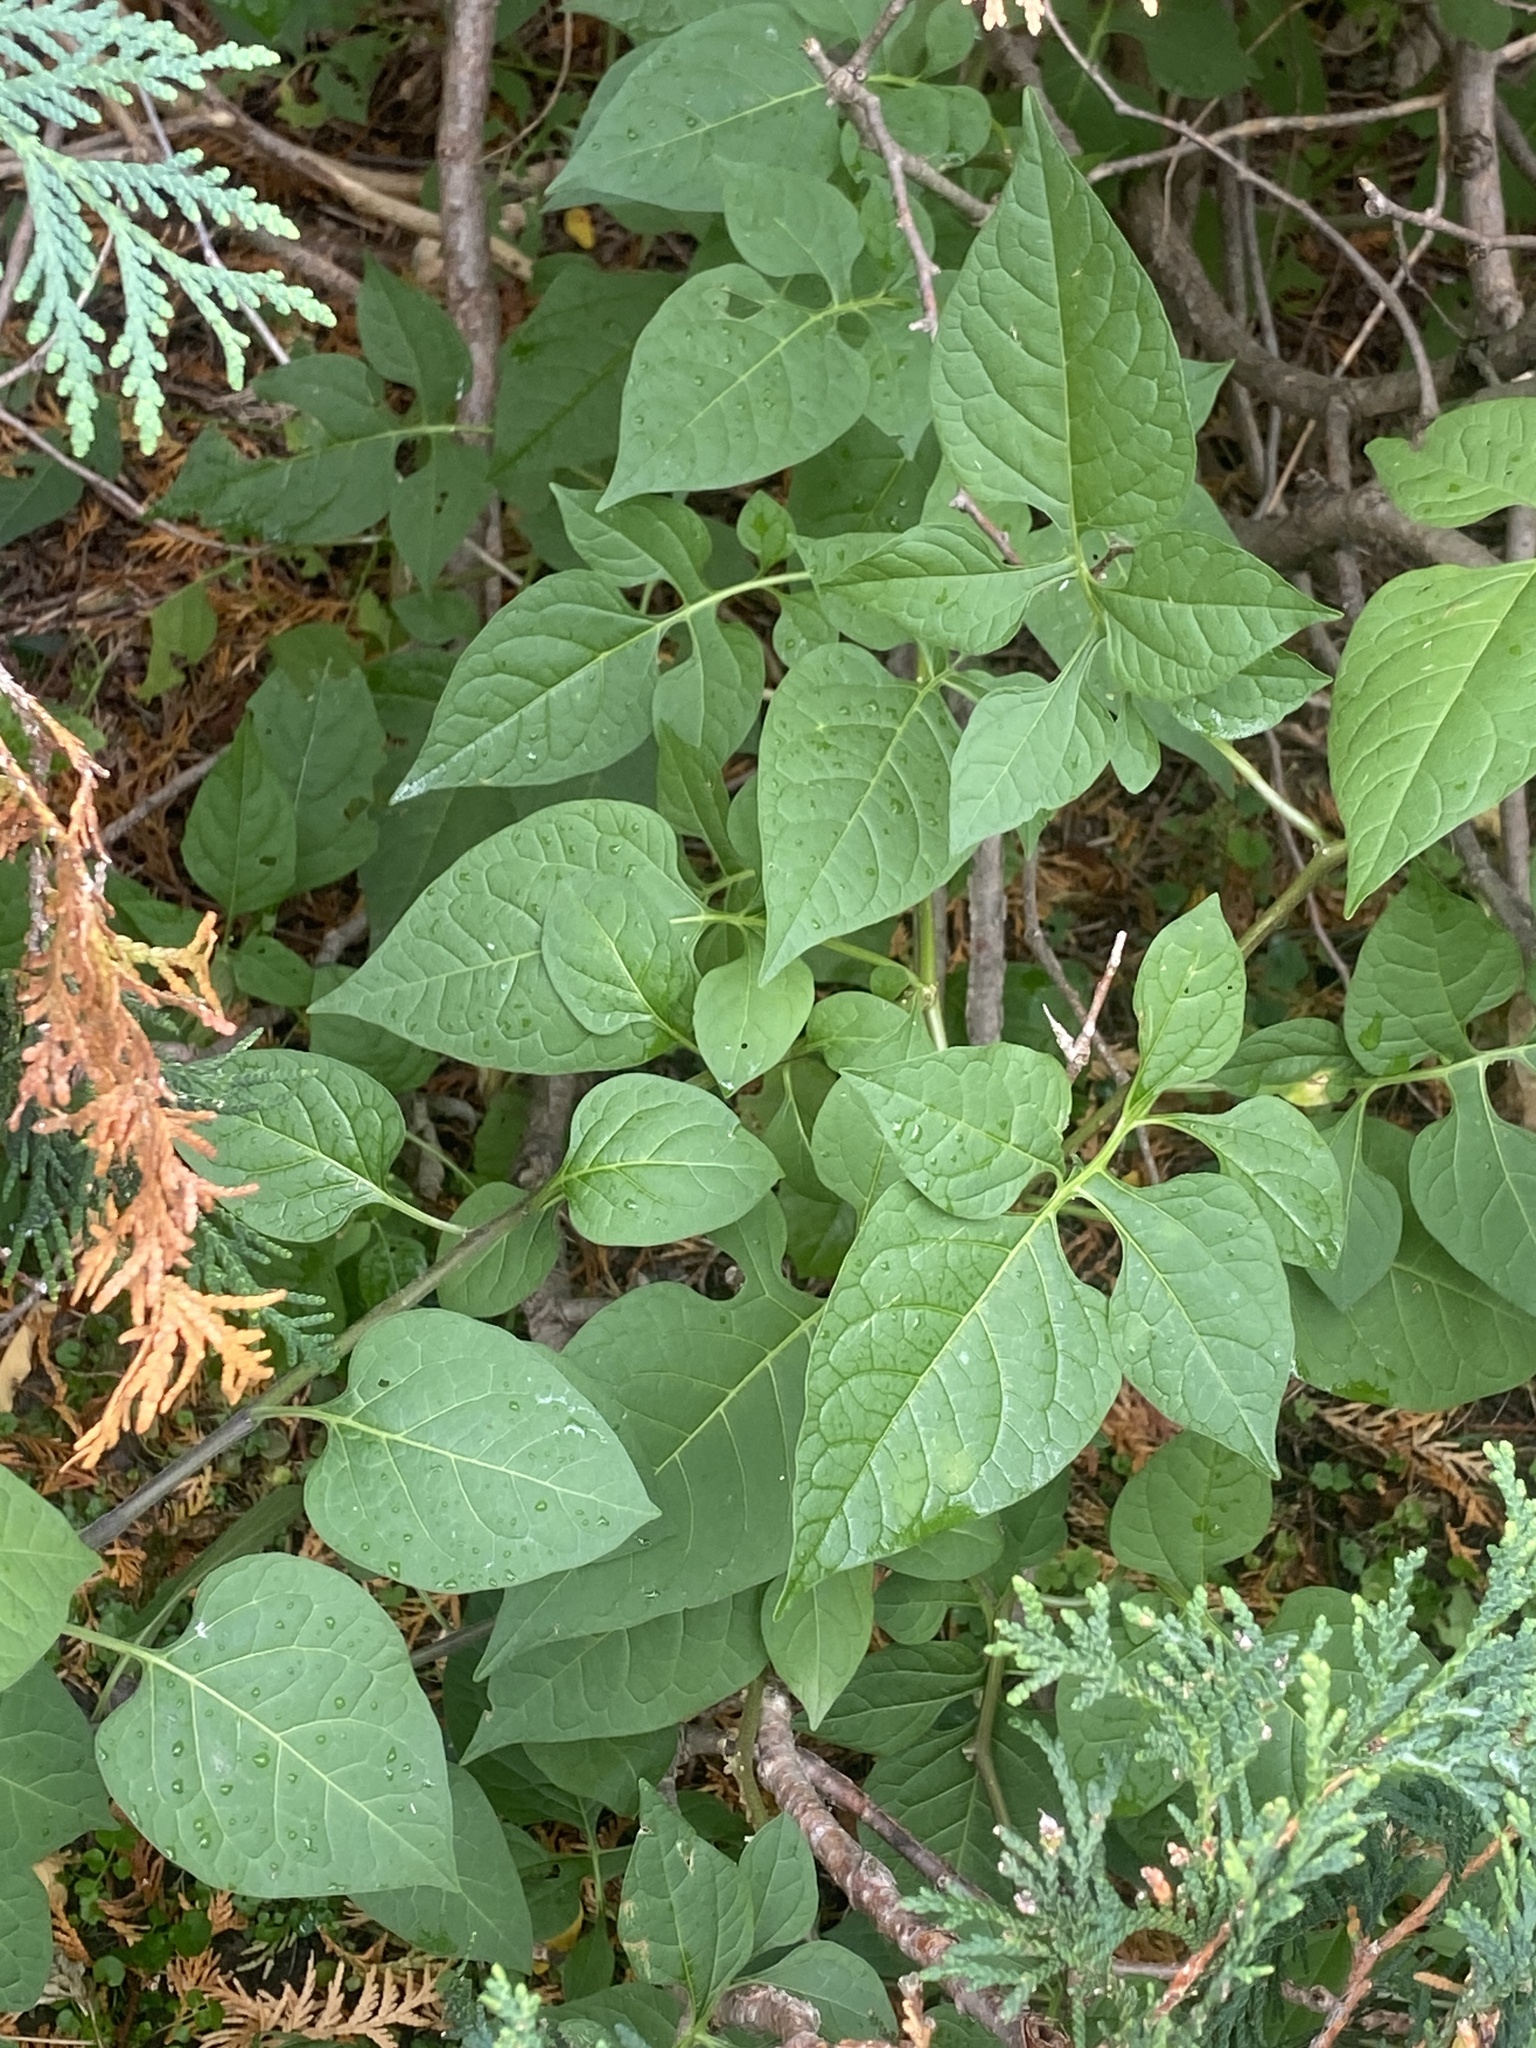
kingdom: Plantae
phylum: Tracheophyta
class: Magnoliopsida
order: Solanales
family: Solanaceae
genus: Solanum
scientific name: Solanum dulcamara
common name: Climbing nightshade
